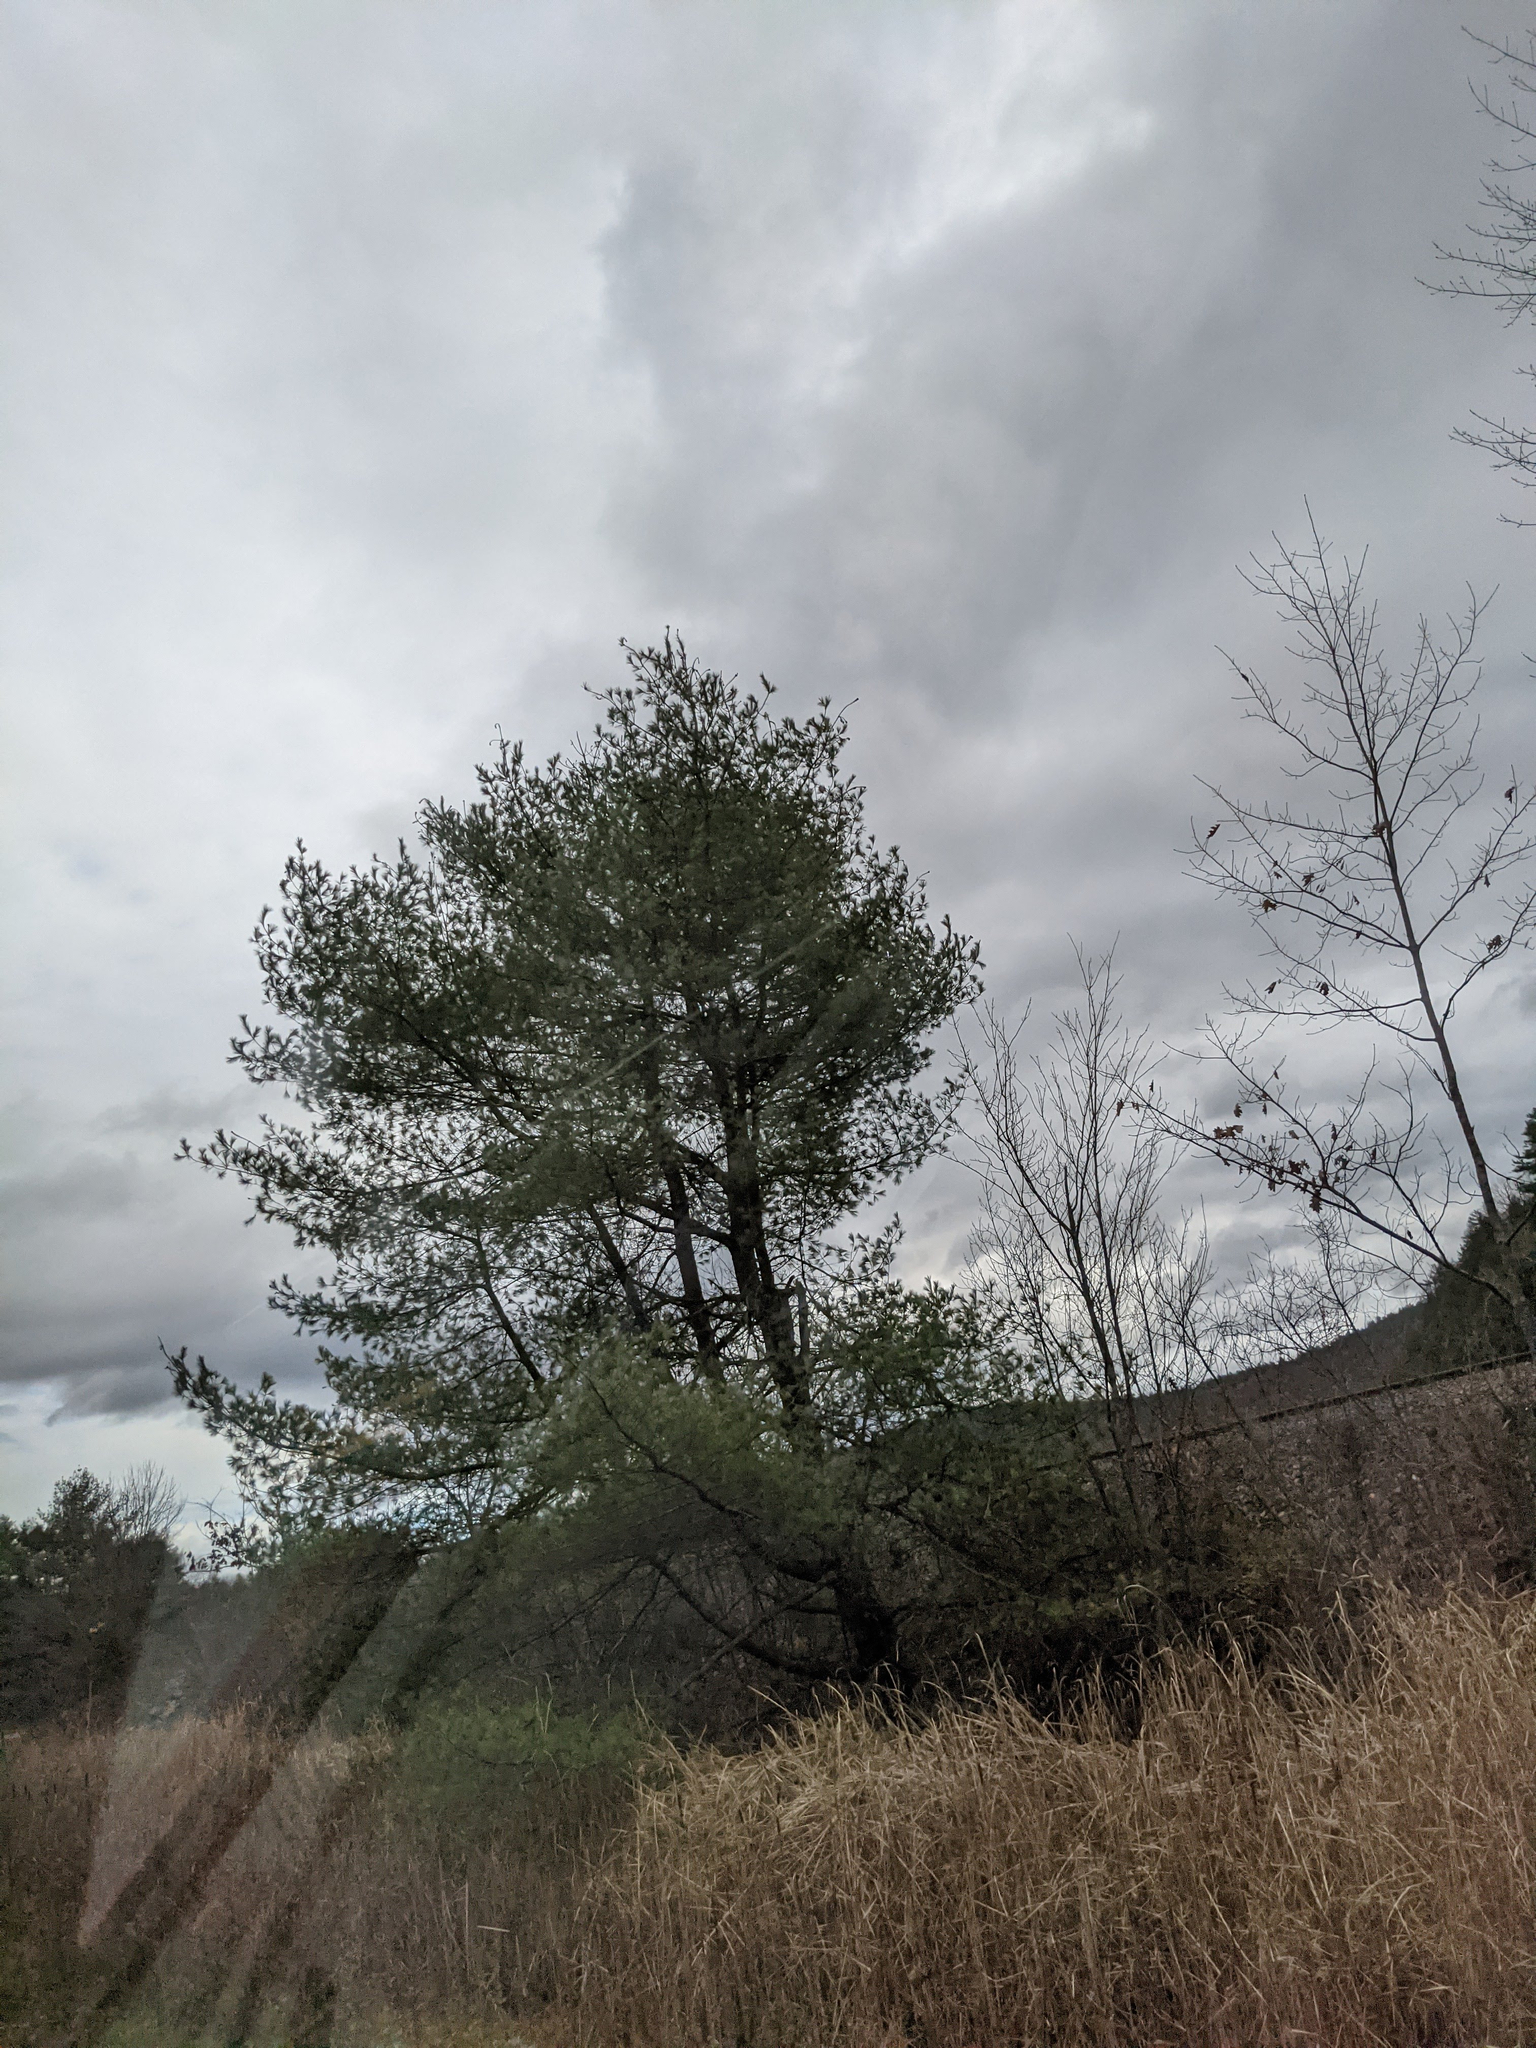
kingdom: Plantae
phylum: Tracheophyta
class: Pinopsida
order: Pinales
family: Pinaceae
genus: Pinus
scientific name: Pinus strobus
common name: Weymouth pine
